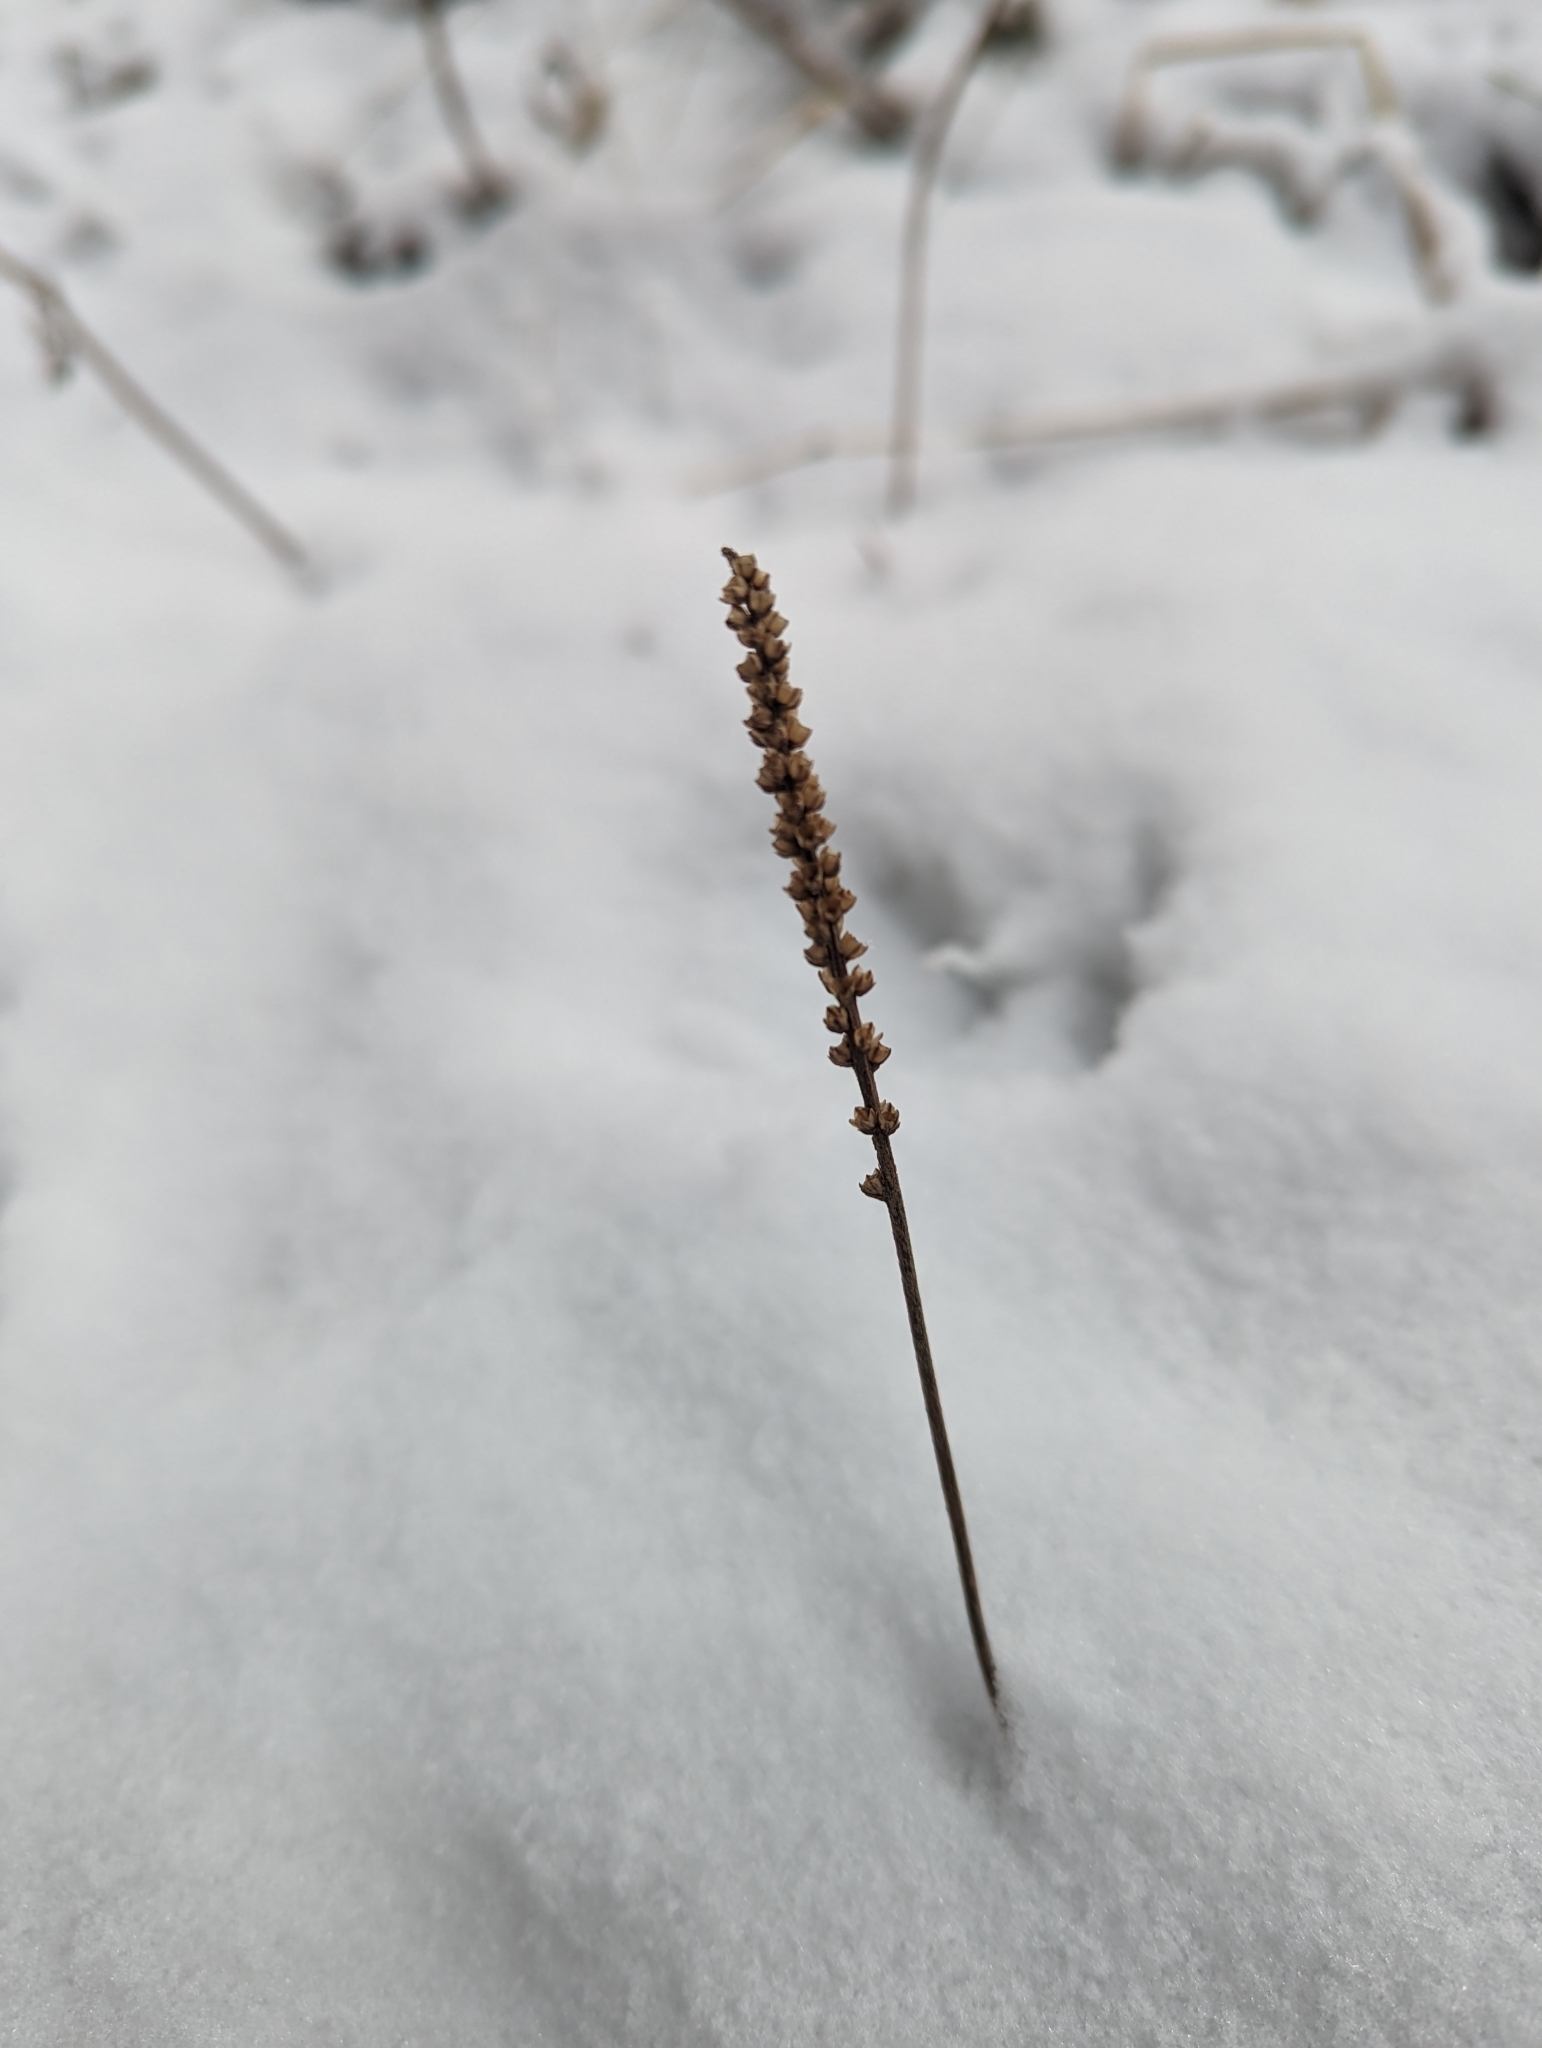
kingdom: Plantae
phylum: Tracheophyta
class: Magnoliopsida
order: Lamiales
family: Plantaginaceae
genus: Plantago
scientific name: Plantago major
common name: Common plantain
